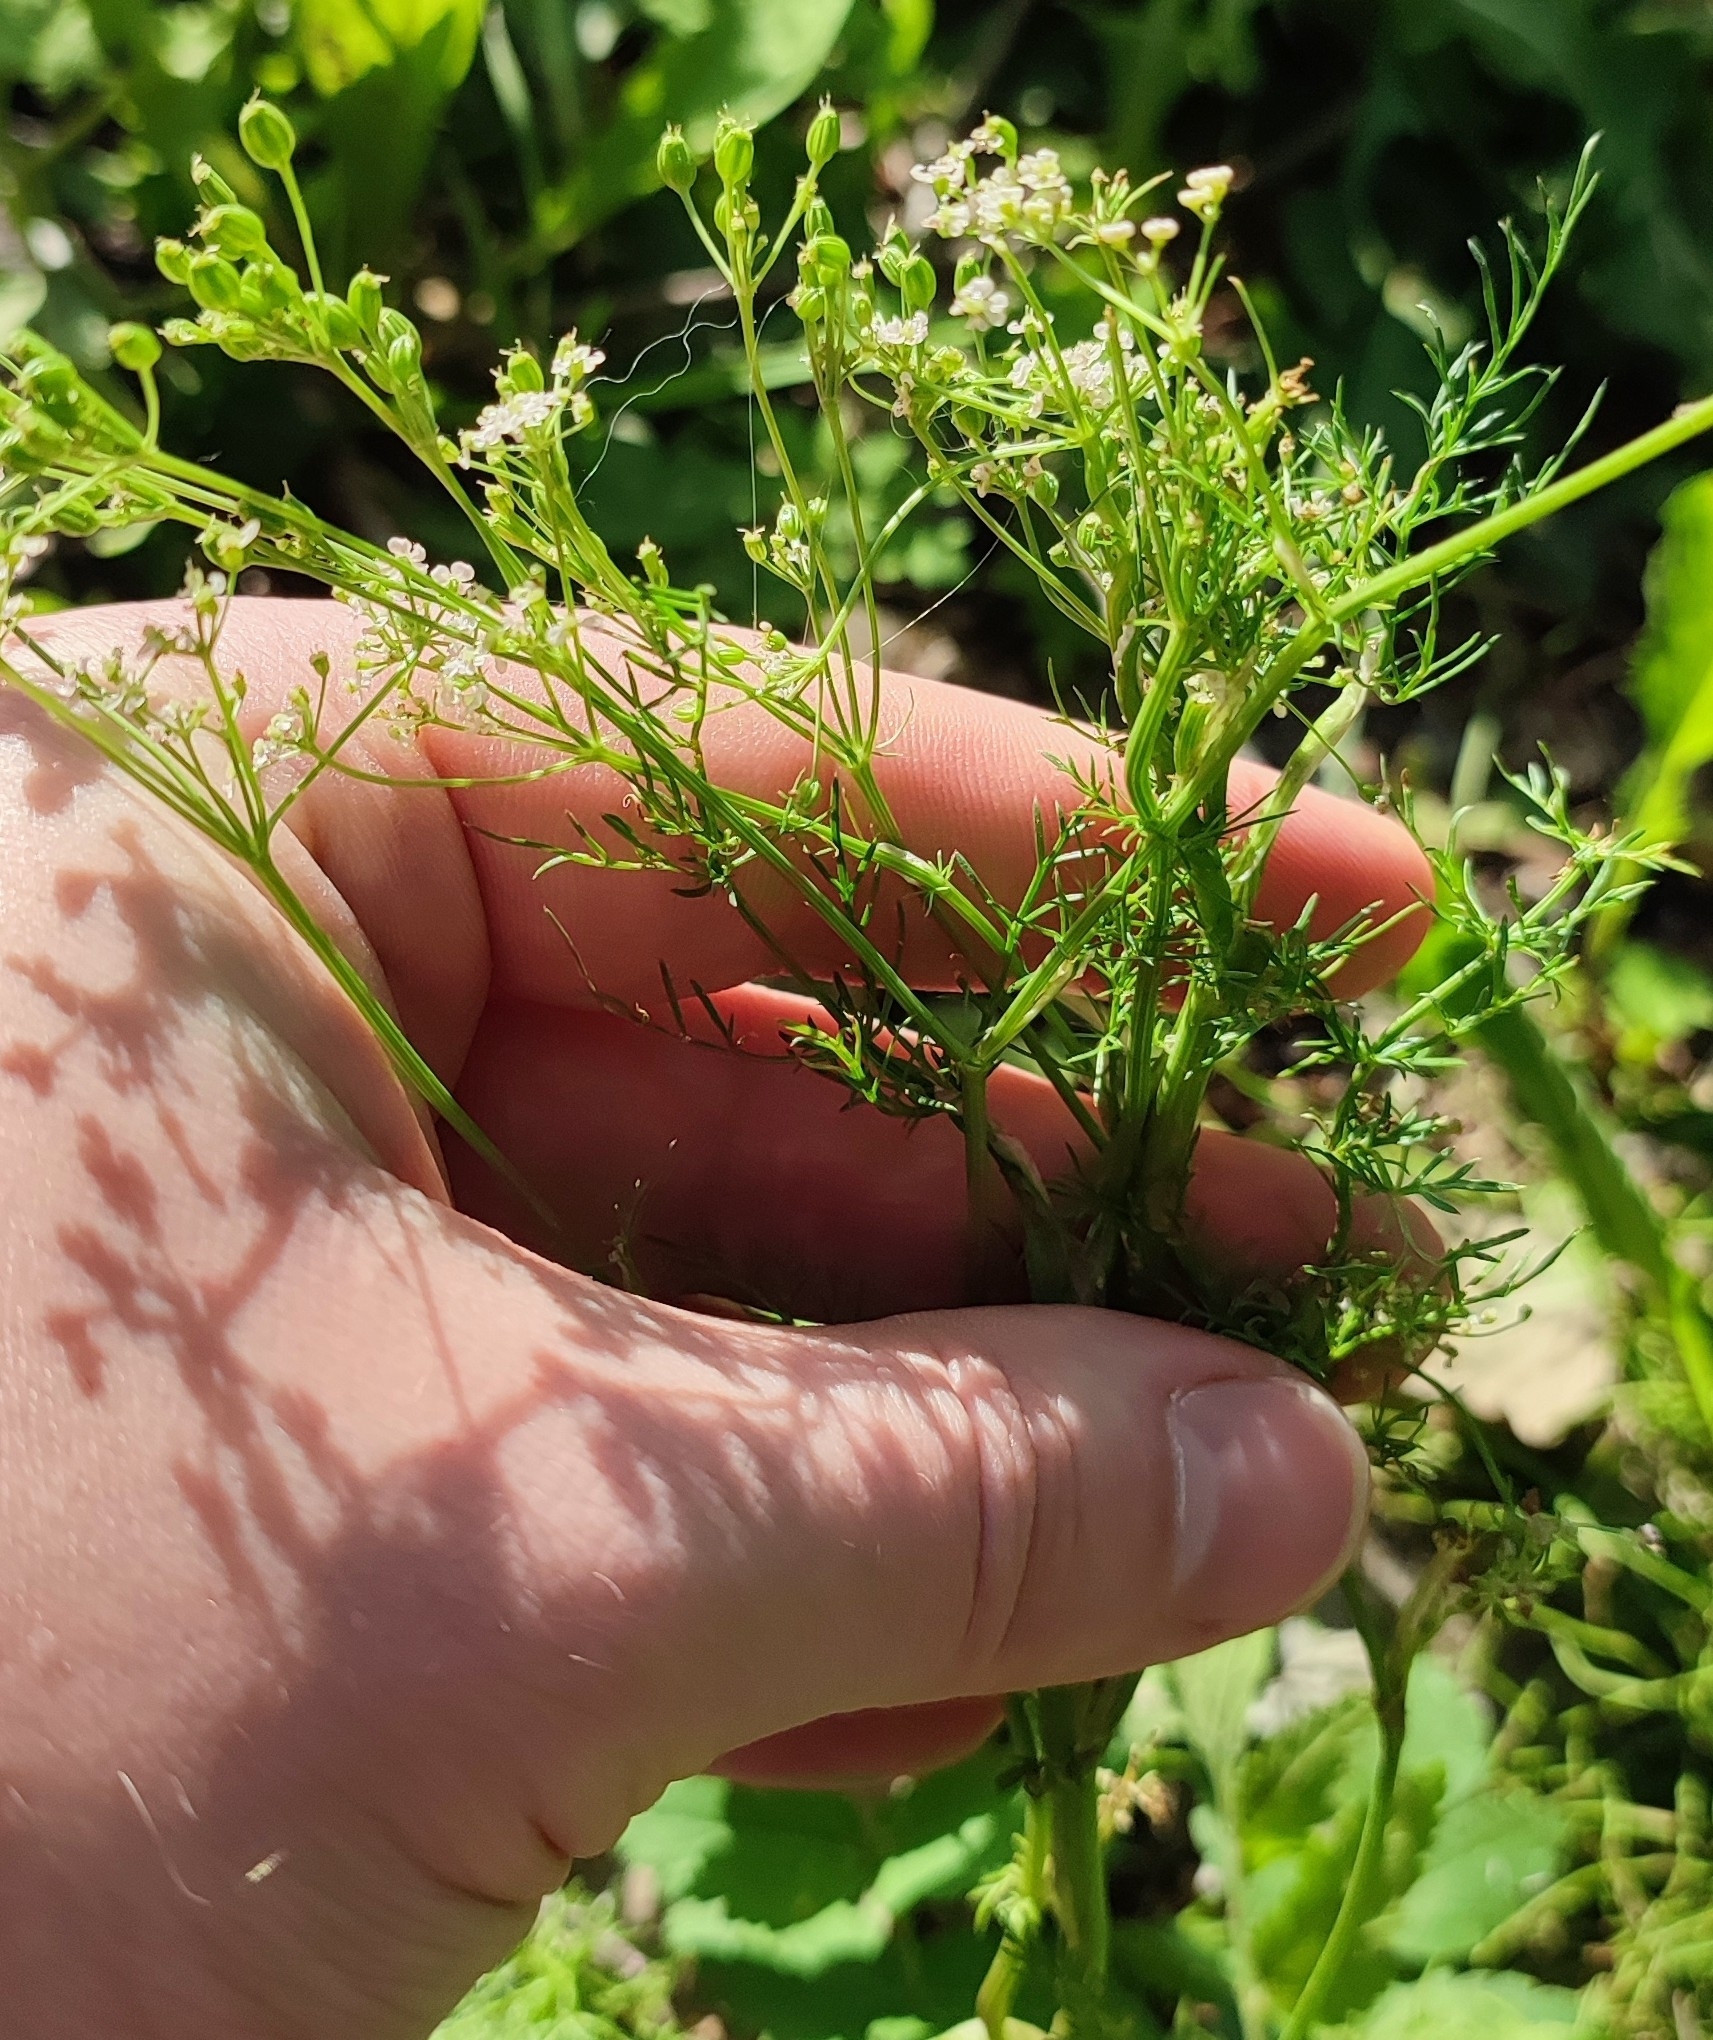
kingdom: Plantae
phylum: Tracheophyta
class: Magnoliopsida
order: Apiales
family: Apiaceae
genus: Carum
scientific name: Carum carvi
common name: Caraway
